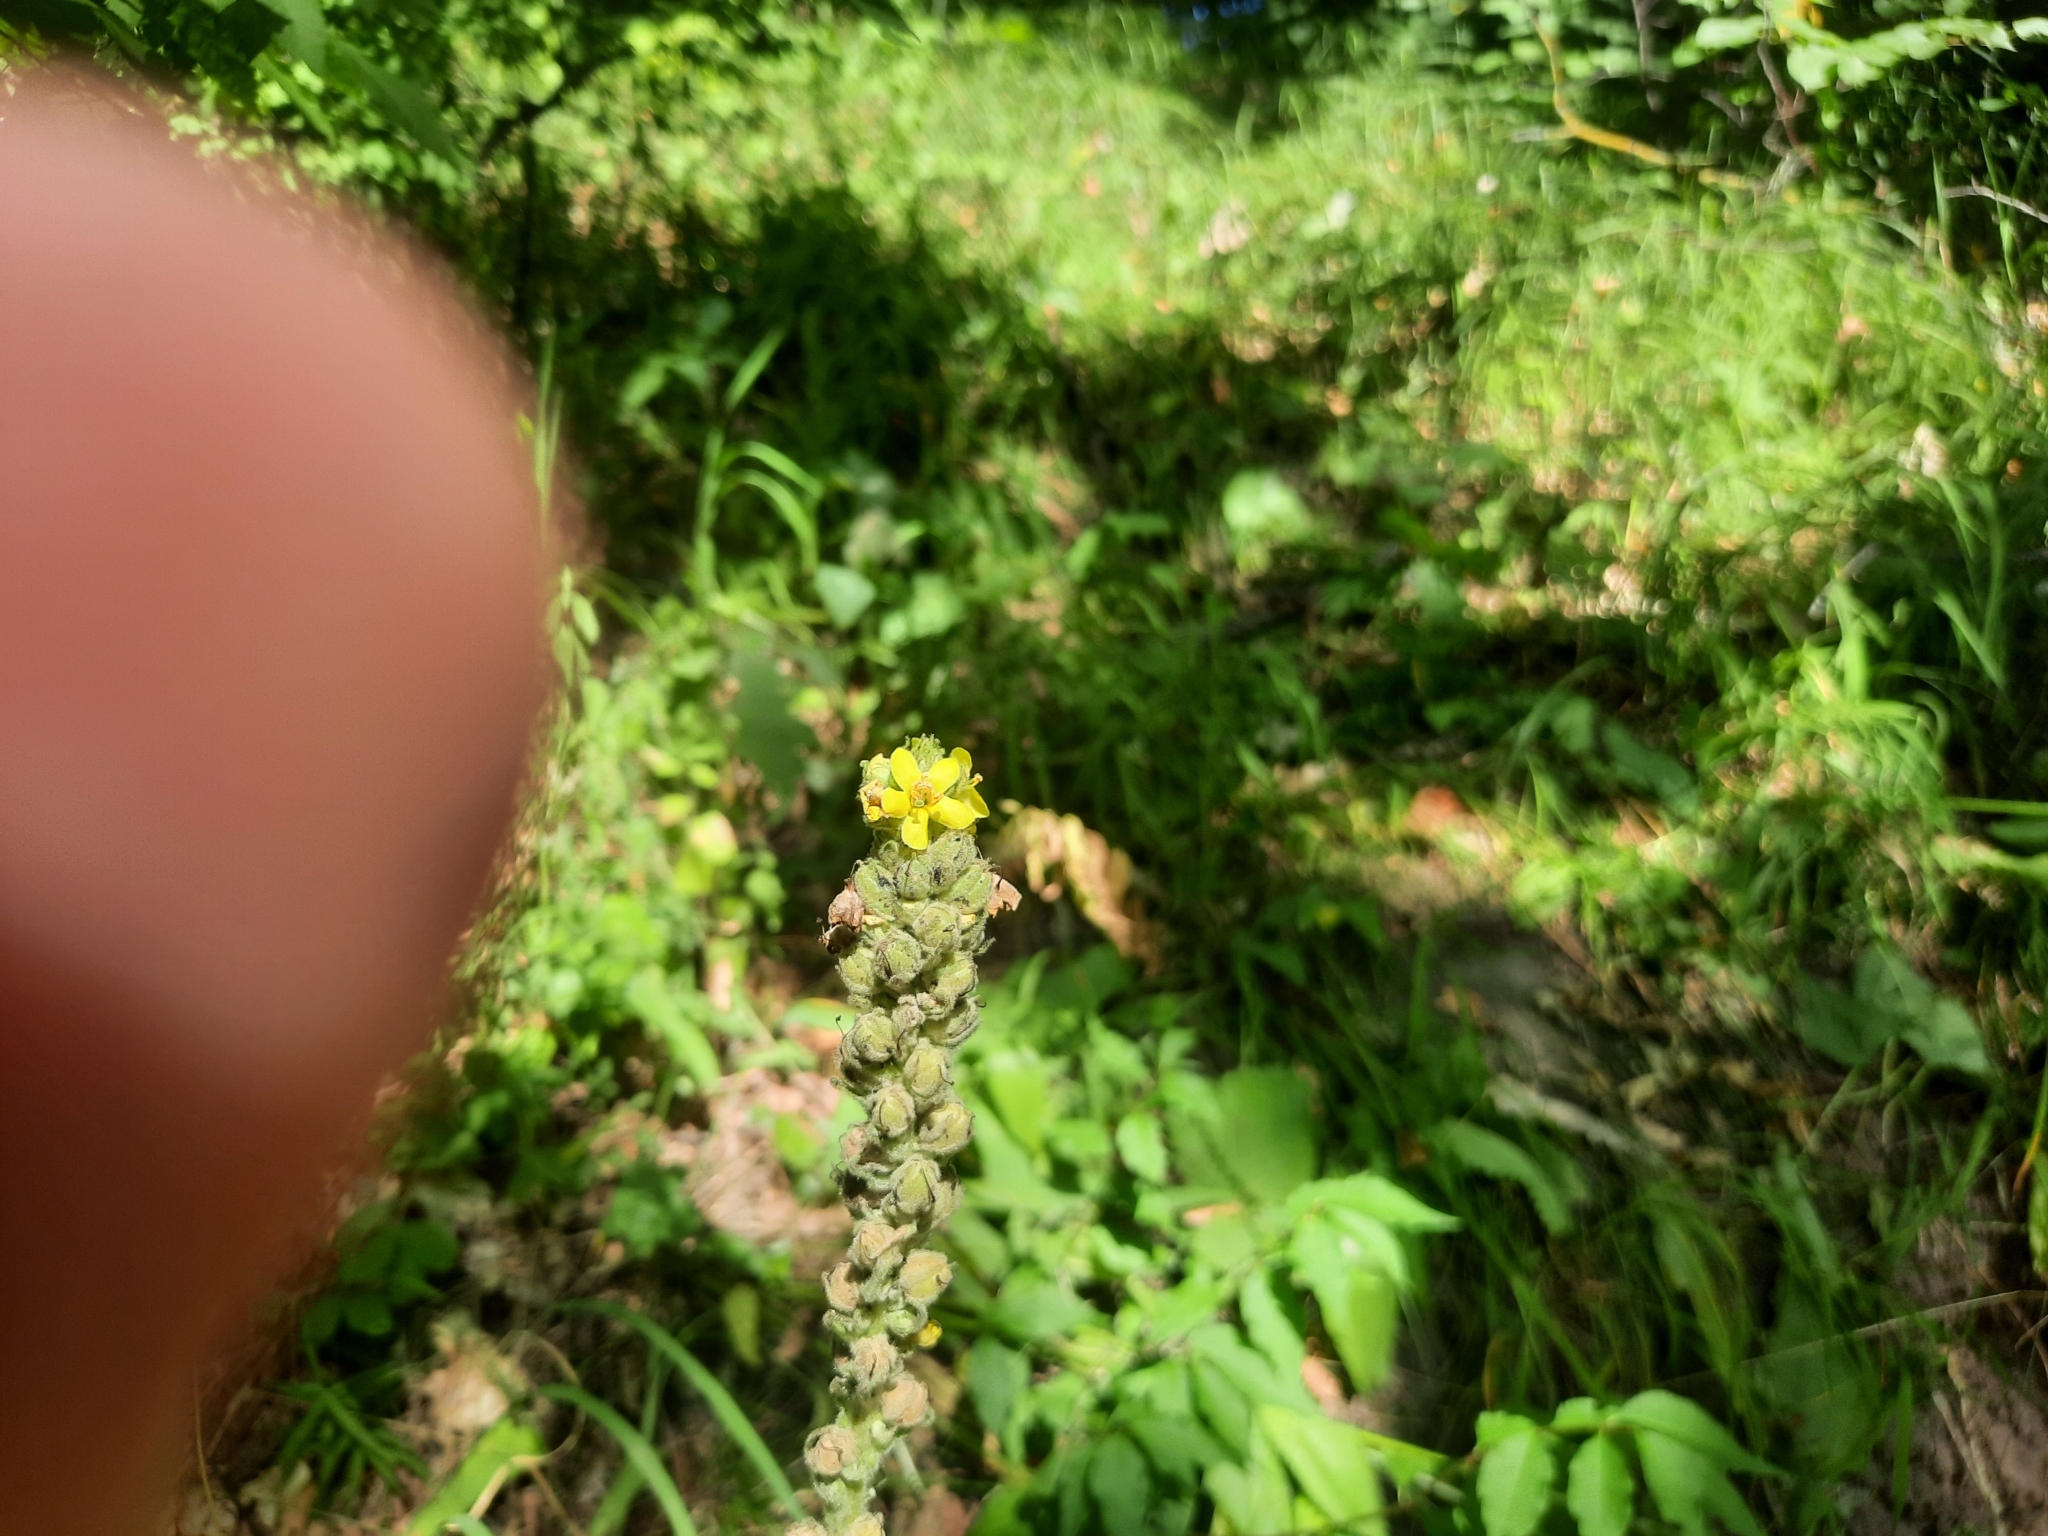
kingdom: Plantae
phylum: Tracheophyta
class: Magnoliopsida
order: Lamiales
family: Scrophulariaceae
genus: Verbascum
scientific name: Verbascum thapsus
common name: Common mullein
